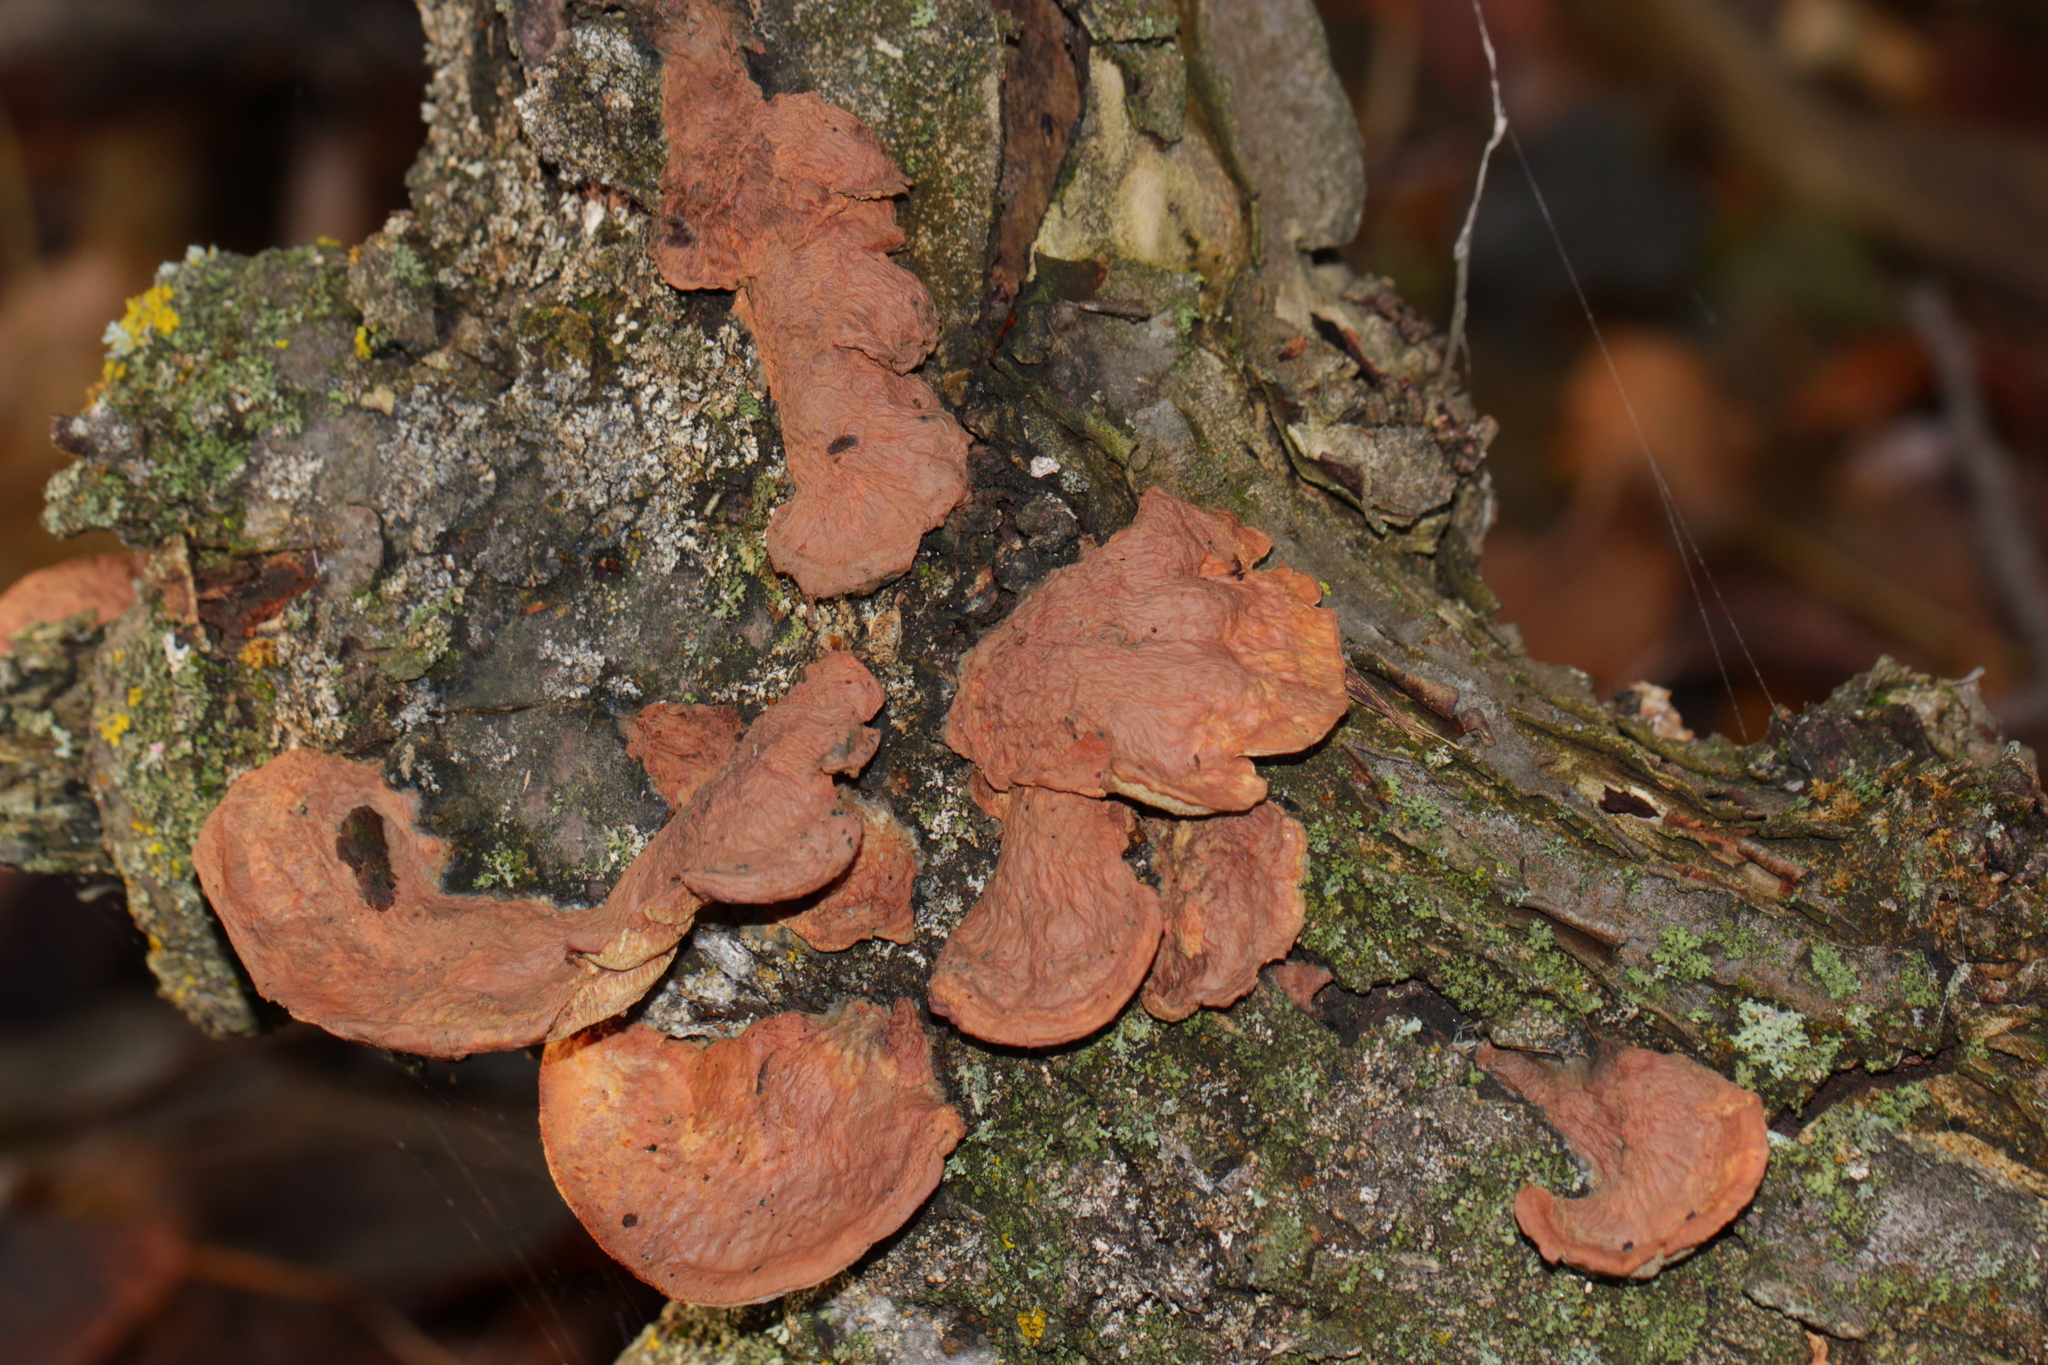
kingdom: Fungi
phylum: Basidiomycota
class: Agaricomycetes
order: Polyporales
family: Phanerochaetaceae
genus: Hapalopilus
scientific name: Hapalopilus rutilans
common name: Tender nesting polypore
